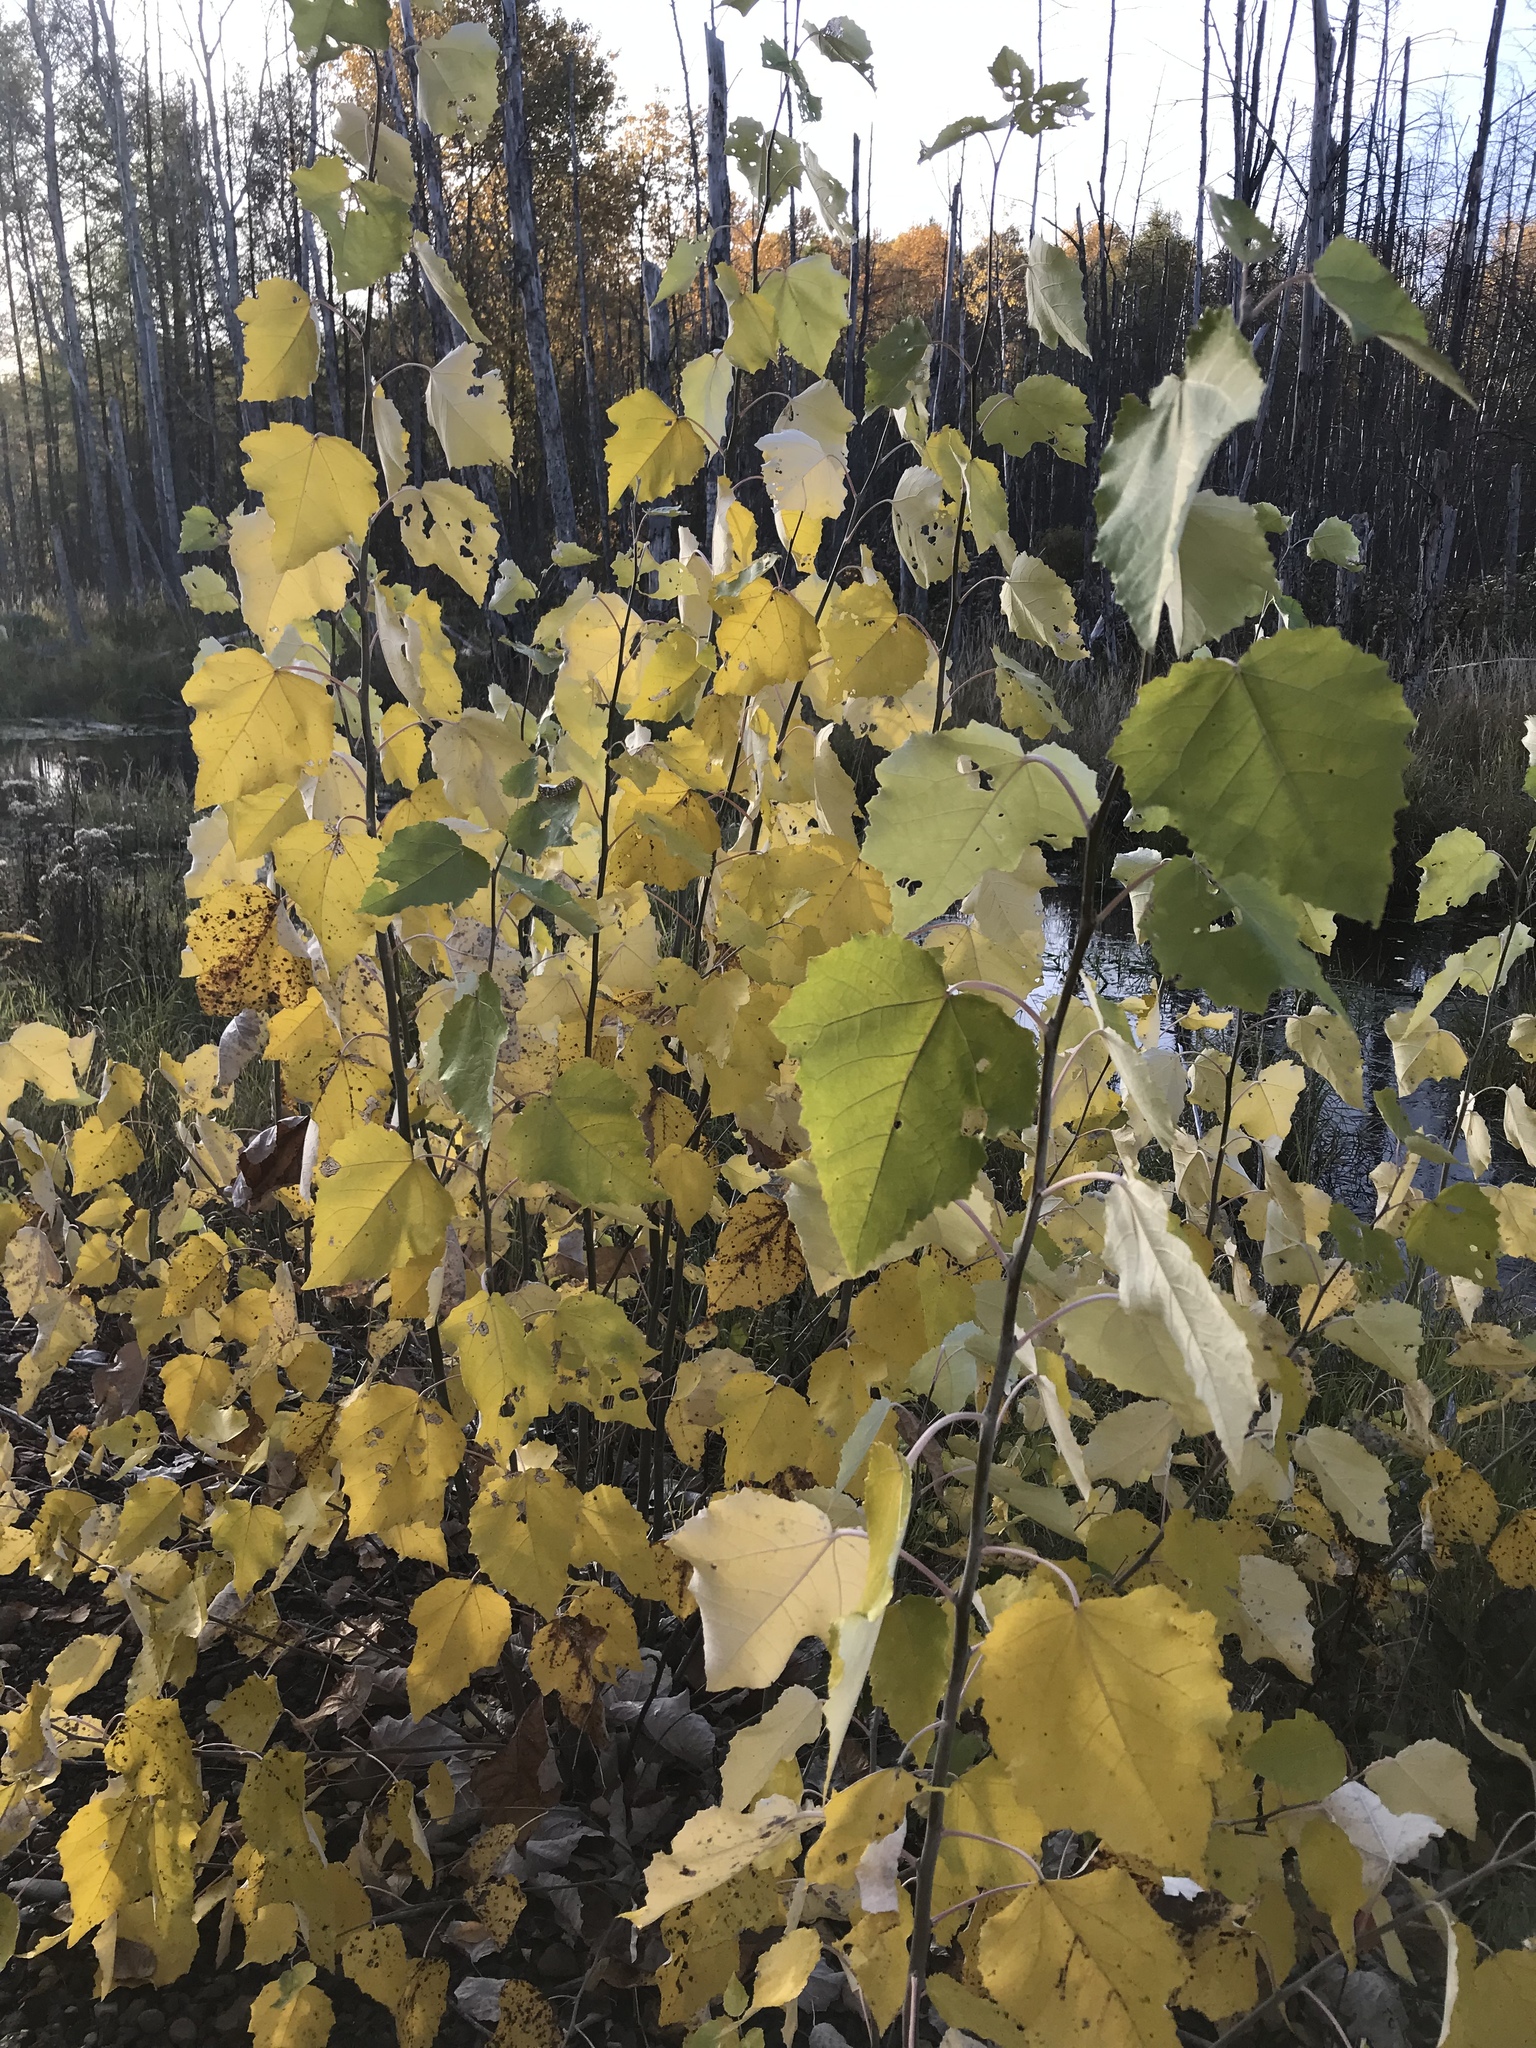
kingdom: Plantae
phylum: Tracheophyta
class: Magnoliopsida
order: Malpighiales
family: Salicaceae
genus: Populus
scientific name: Populus grandidentata
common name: Bigtooth aspen
